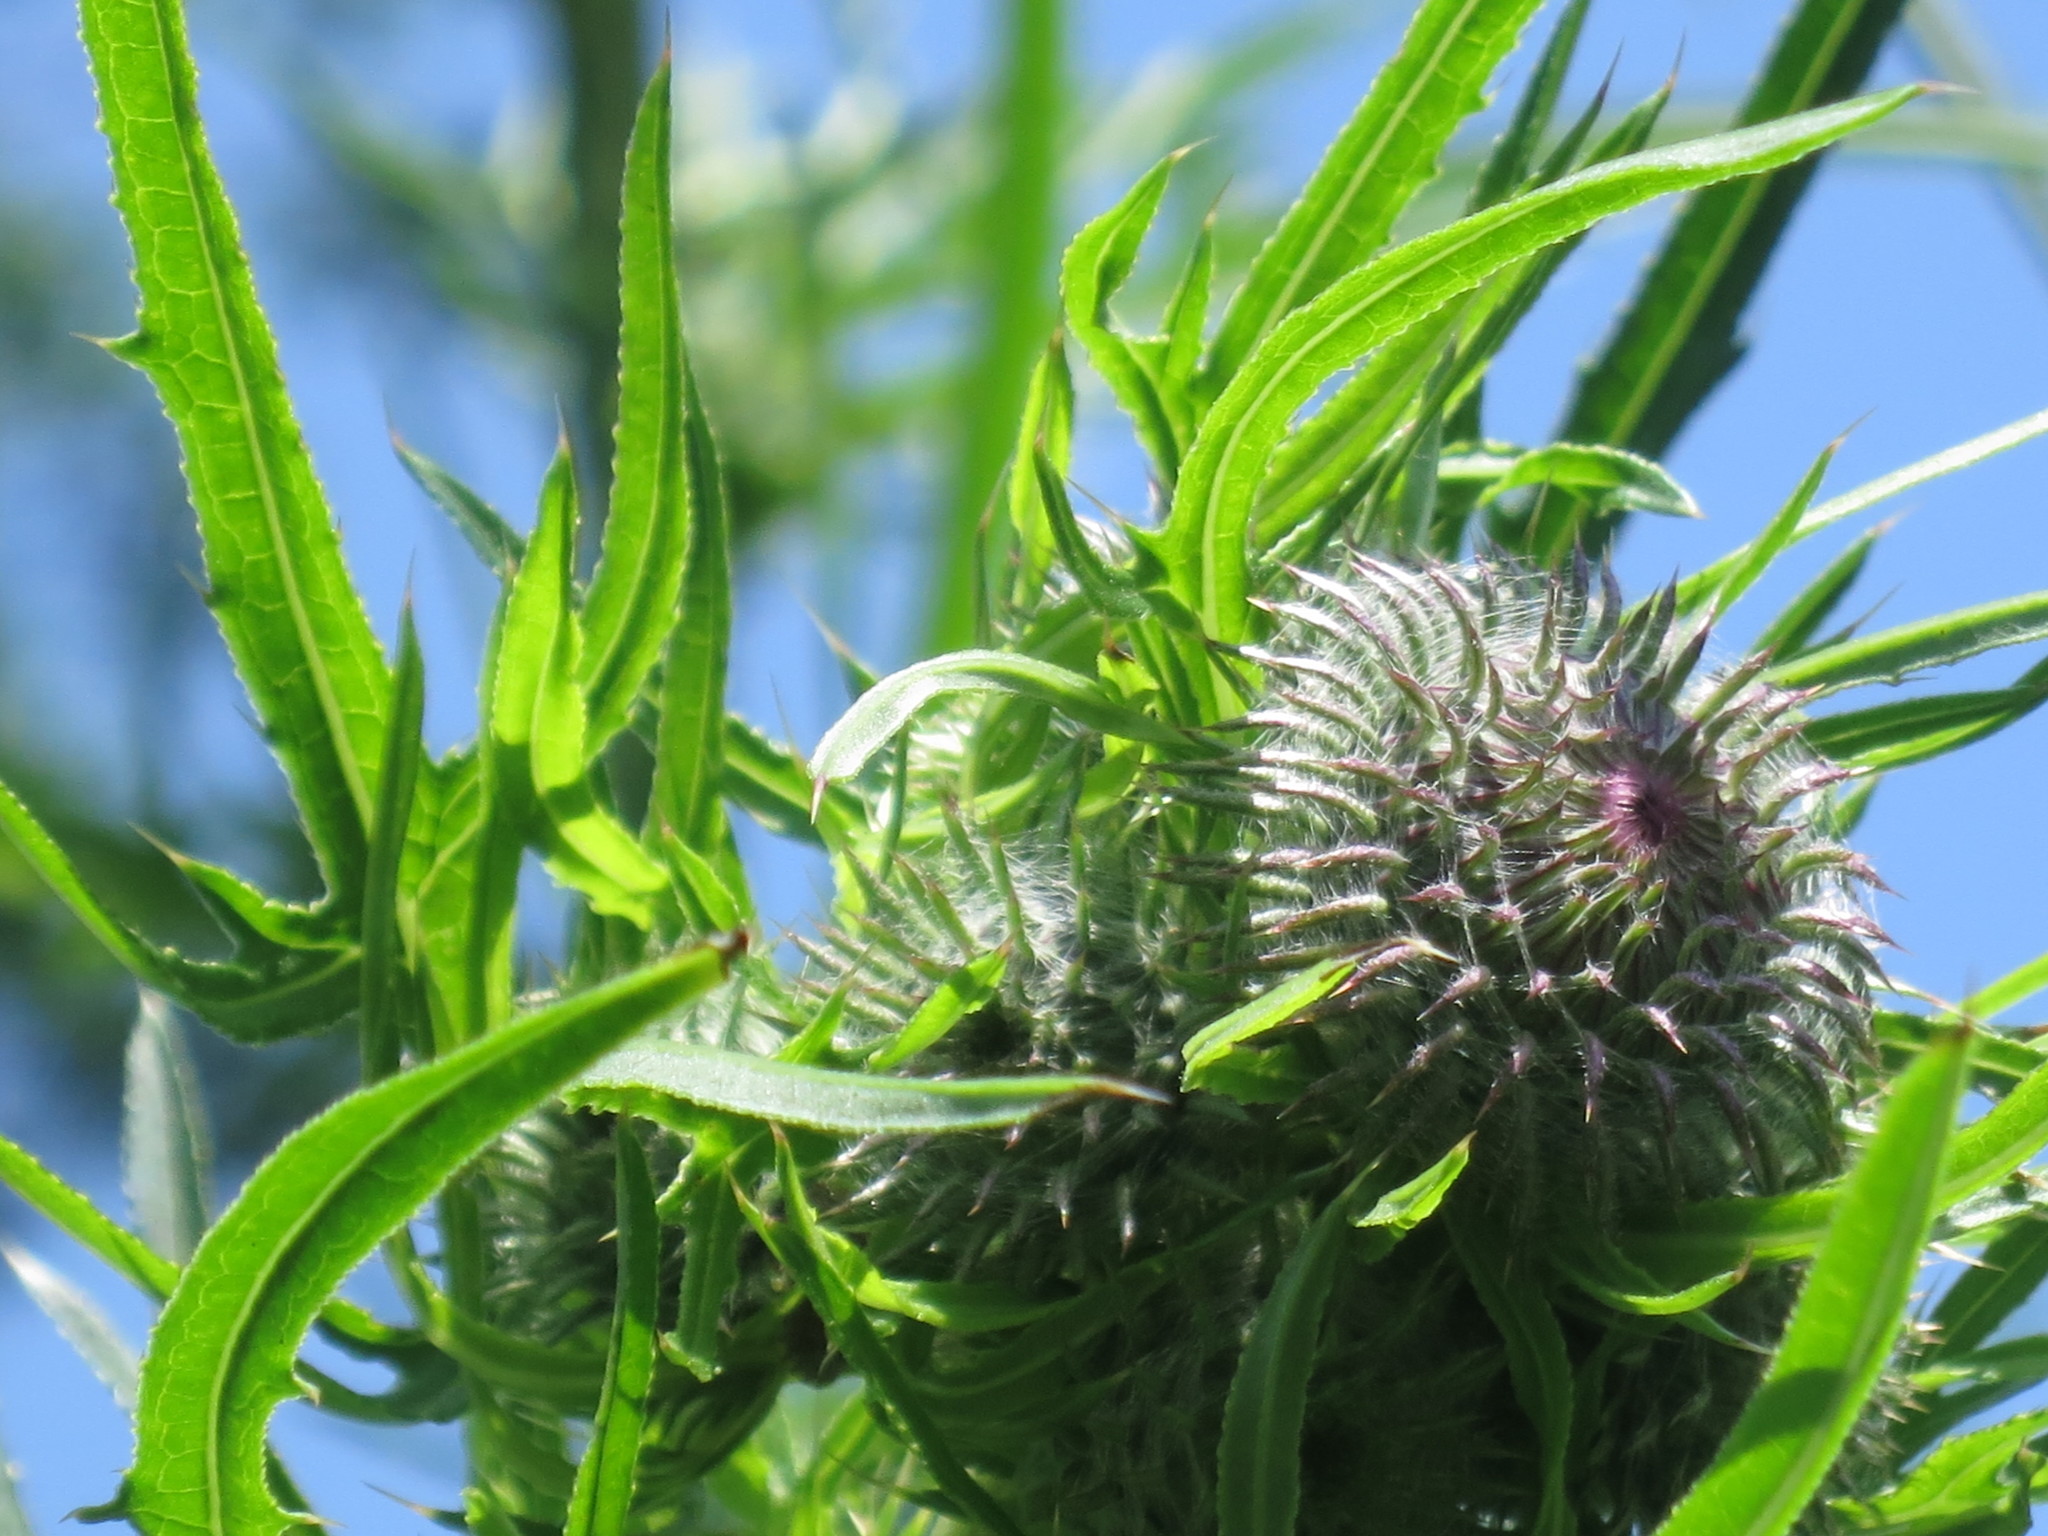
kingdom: Plantae
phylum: Tracheophyta
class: Magnoliopsida
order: Asterales
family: Asteraceae
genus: Cirsium
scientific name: Cirsium pendulum
